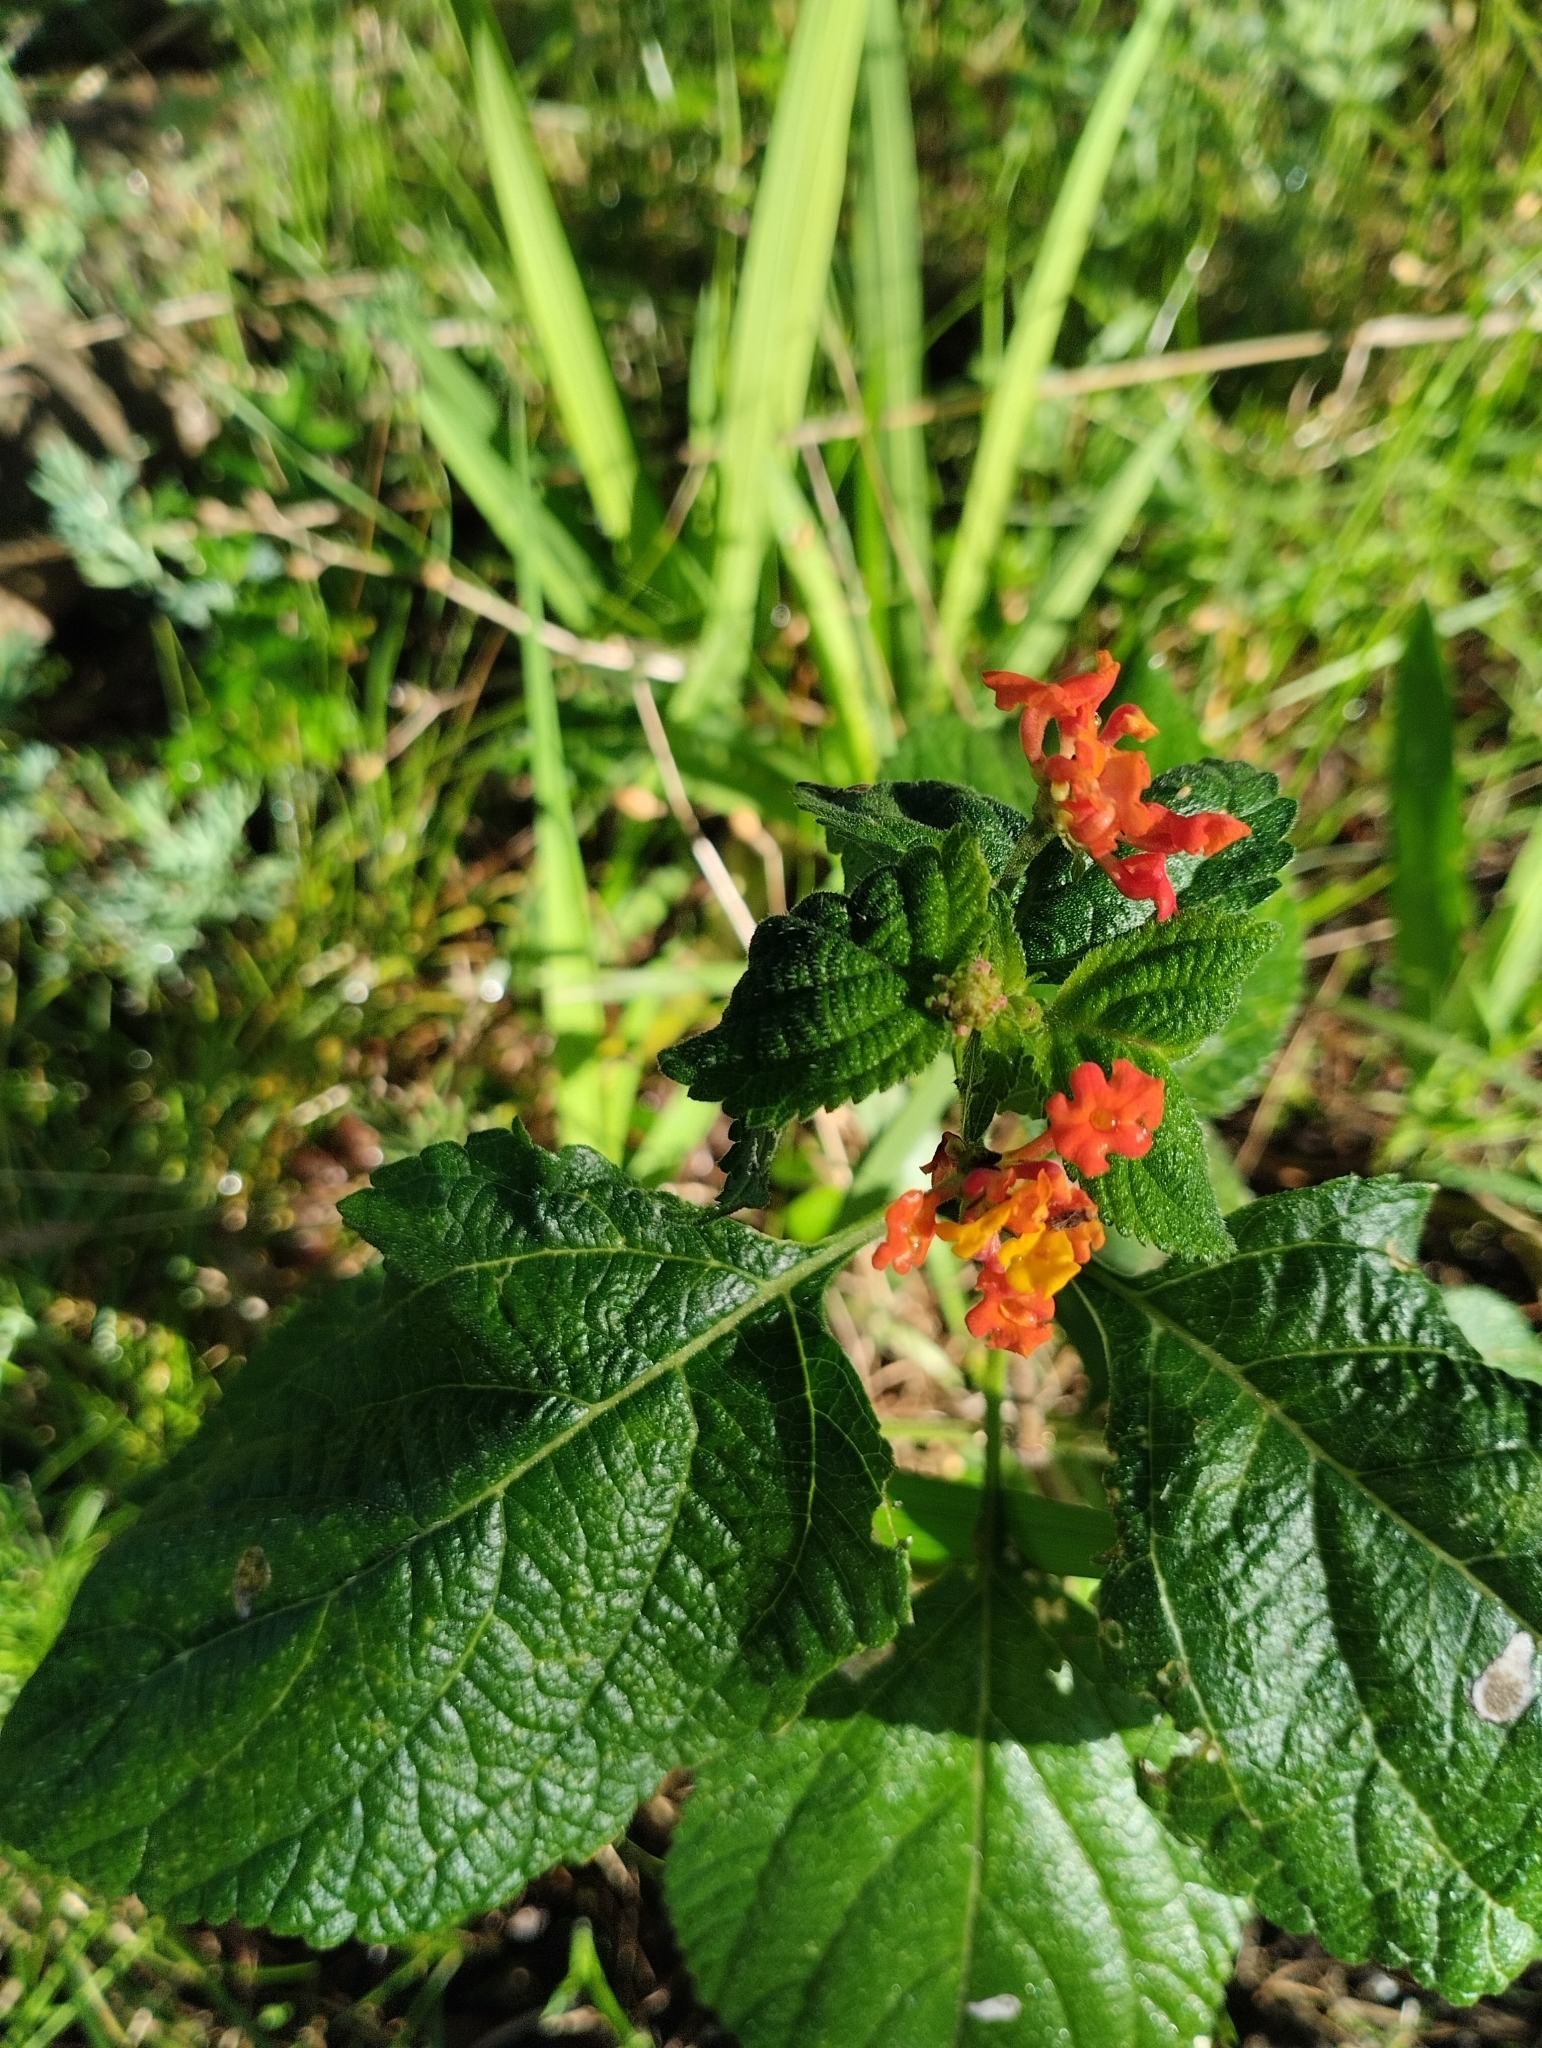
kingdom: Plantae
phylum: Tracheophyta
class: Magnoliopsida
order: Lamiales
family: Verbenaceae
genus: Lantana
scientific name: Lantana camara
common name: Lantana
